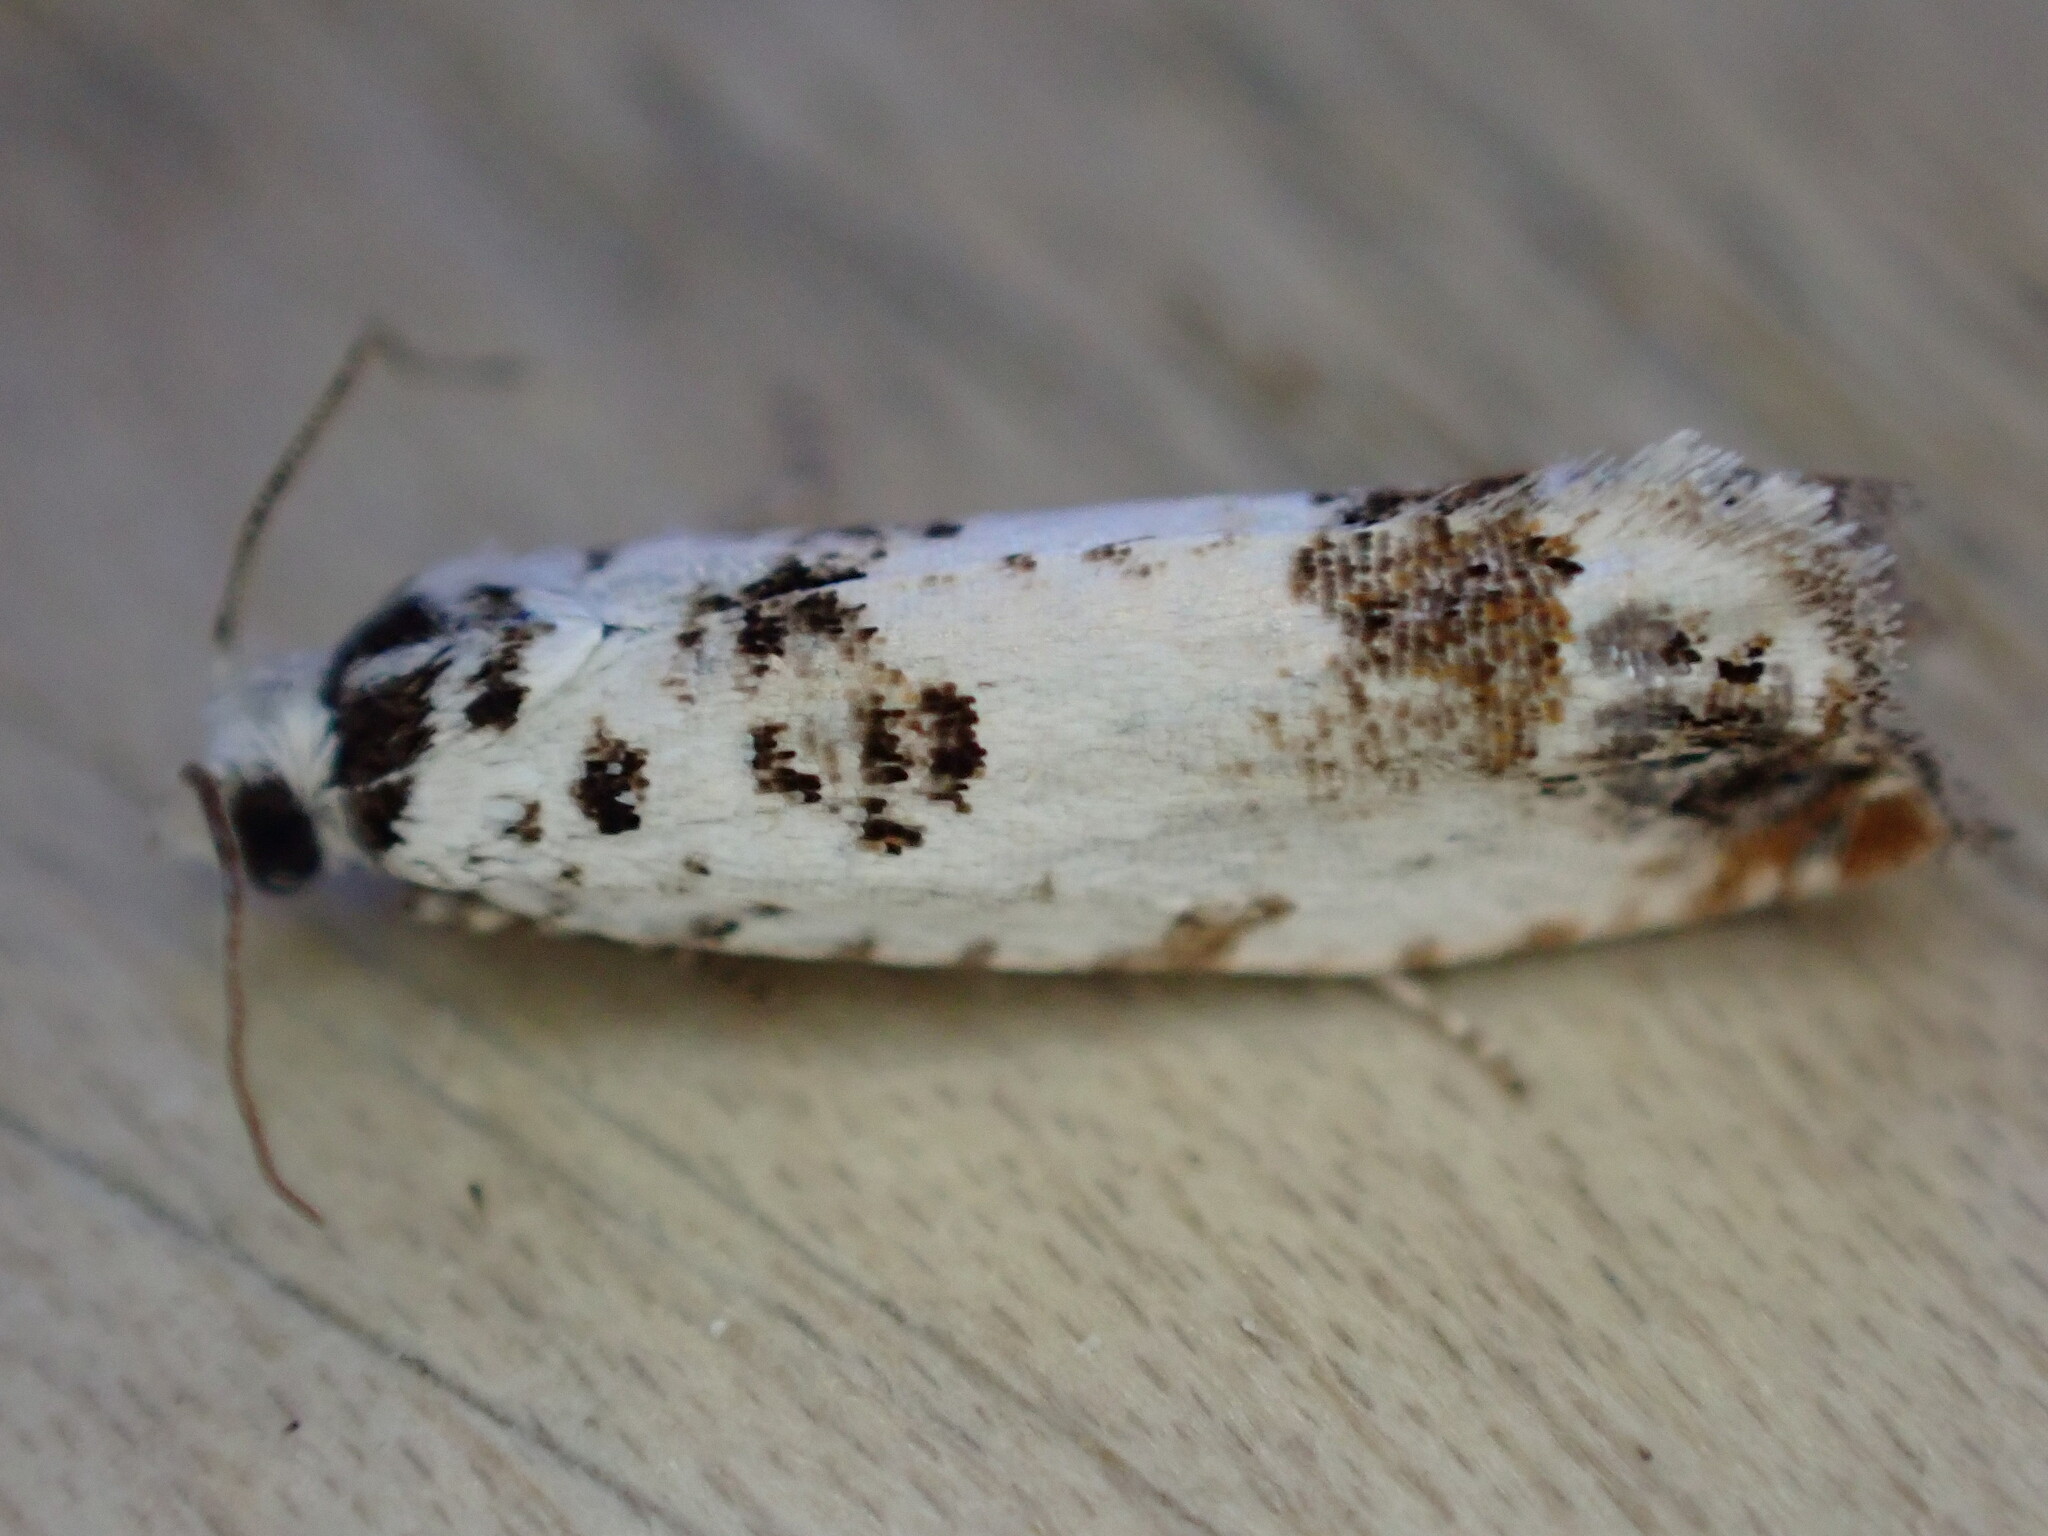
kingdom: Animalia
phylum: Arthropoda
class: Insecta
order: Lepidoptera
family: Tortricidae
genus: Eucosma
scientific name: Eucosma campoliliana
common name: Marbled bell
